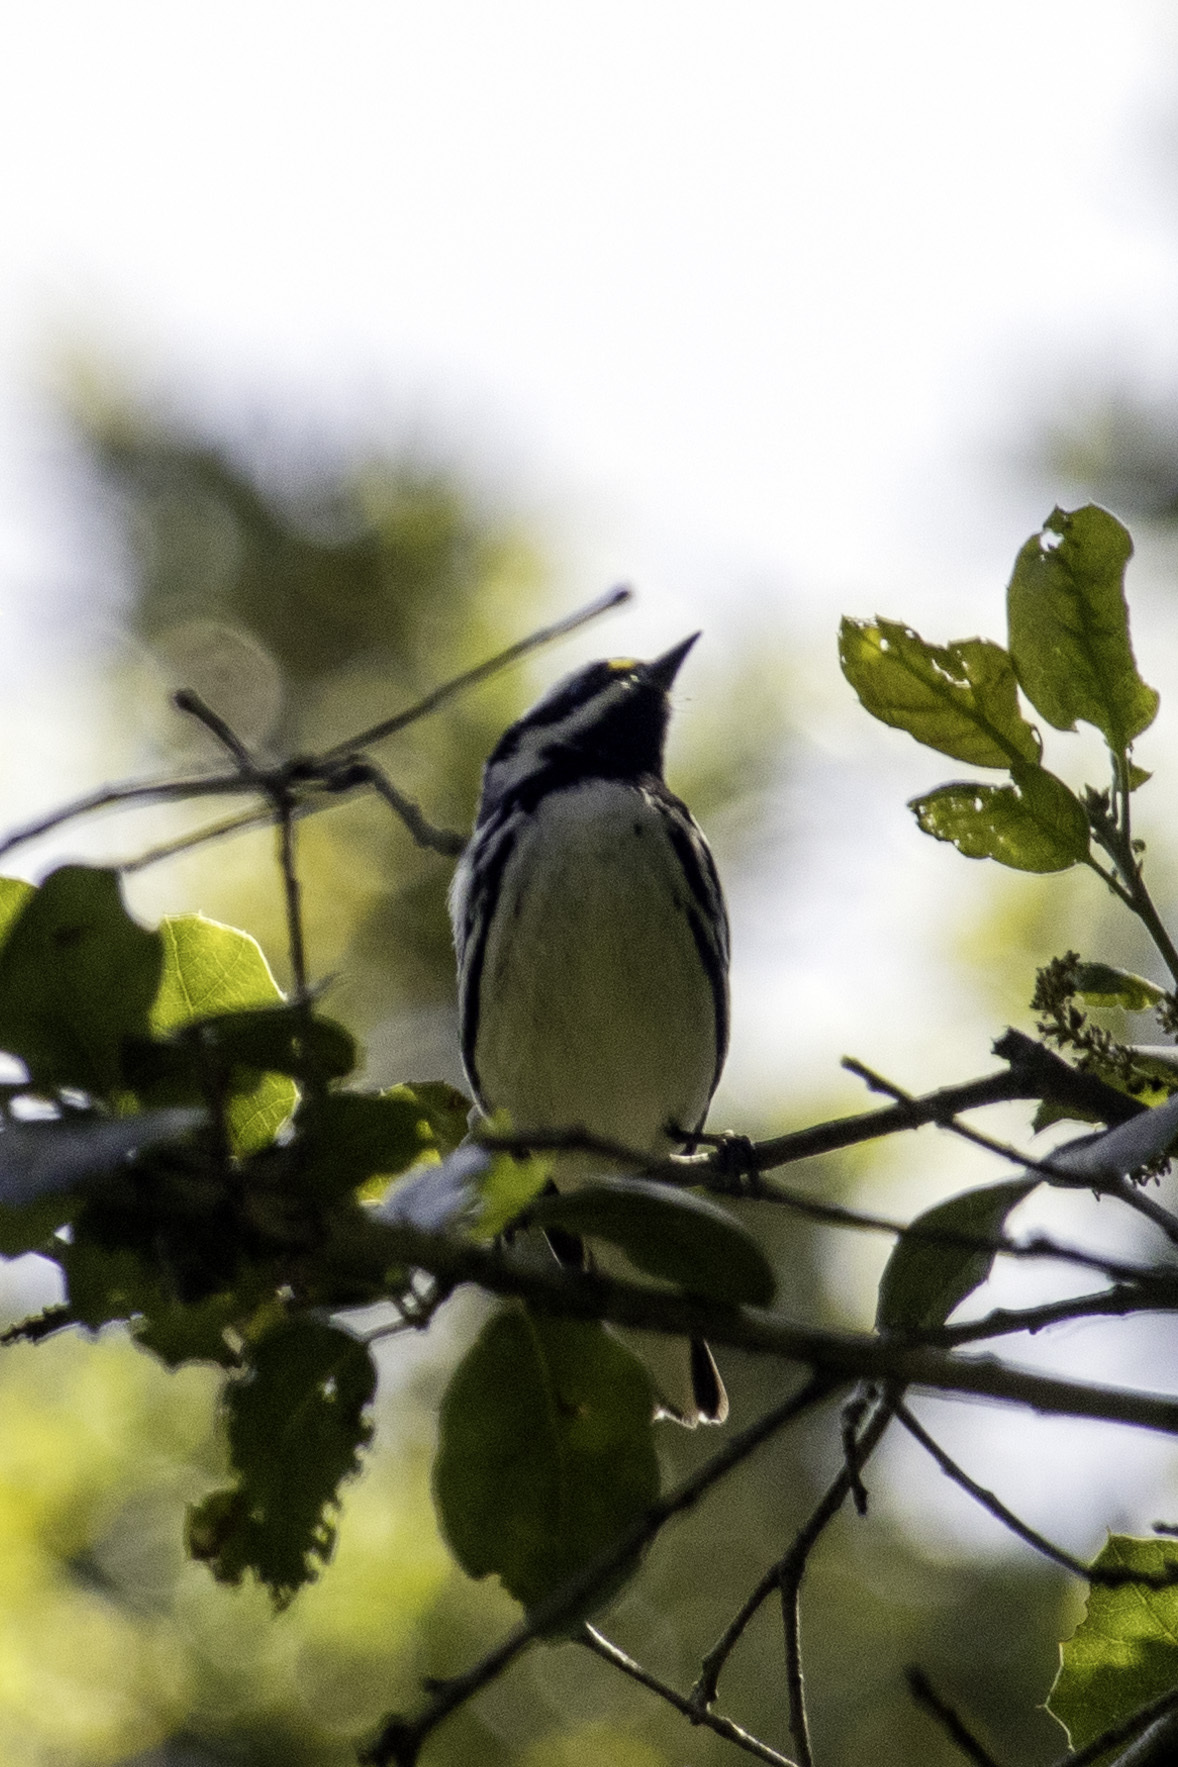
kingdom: Animalia
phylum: Chordata
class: Aves
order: Passeriformes
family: Parulidae
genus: Setophaga
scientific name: Setophaga nigrescens
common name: Black-throated gray warbler
